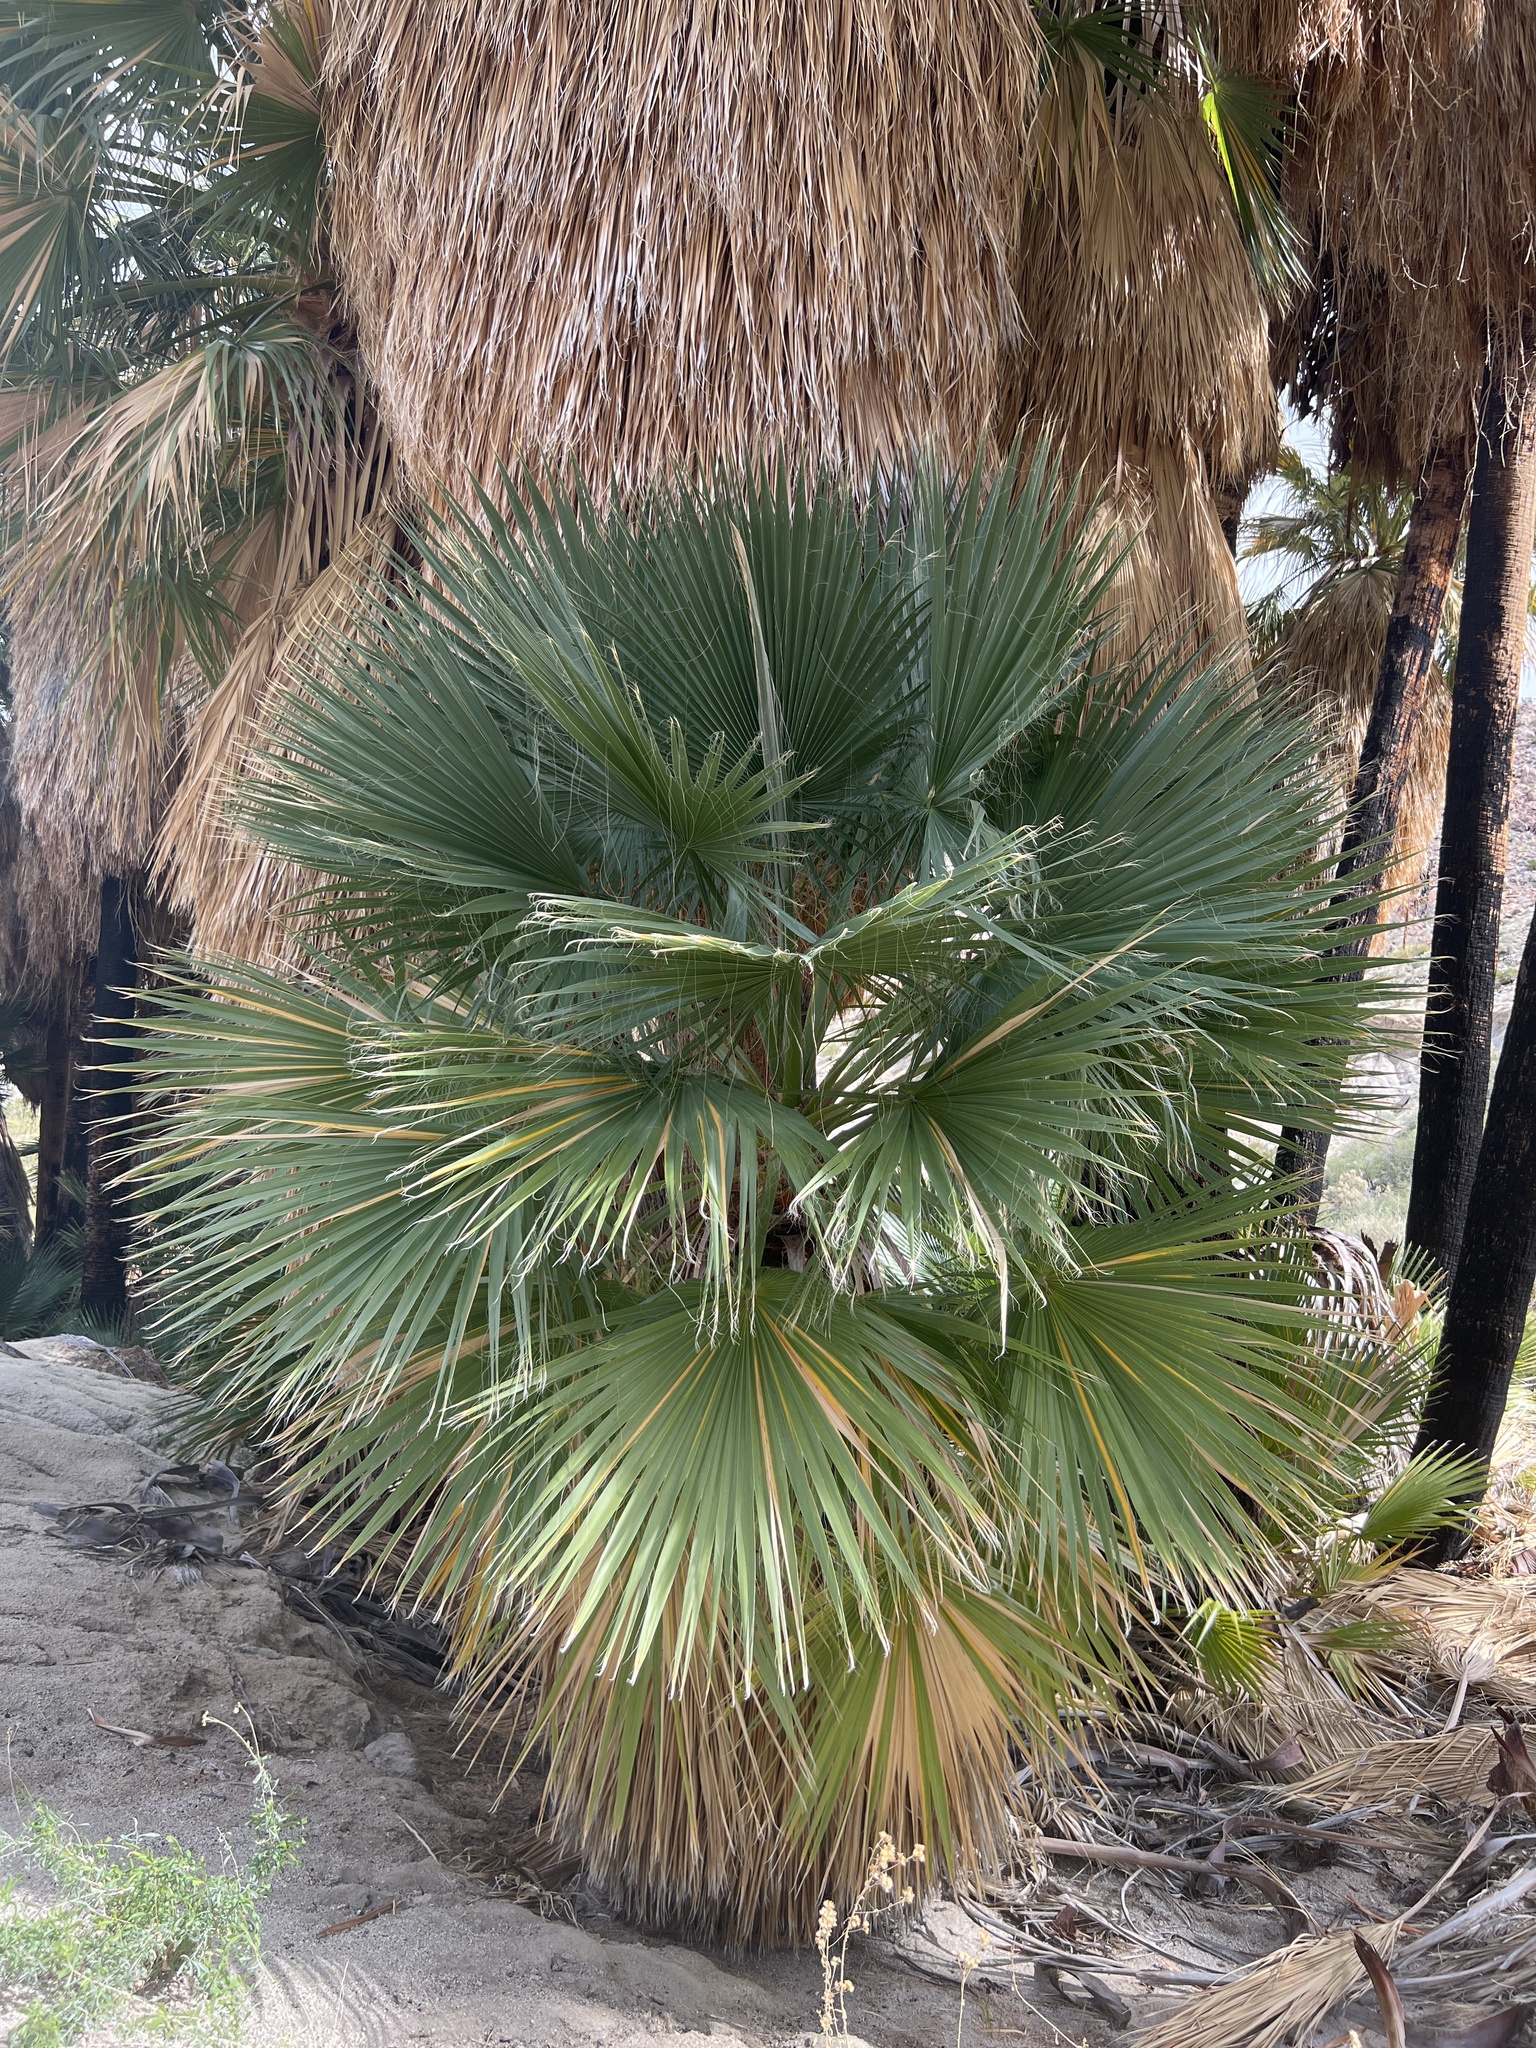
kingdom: Plantae
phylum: Tracheophyta
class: Liliopsida
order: Arecales
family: Arecaceae
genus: Washingtonia
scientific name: Washingtonia filifera
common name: California fan palm
